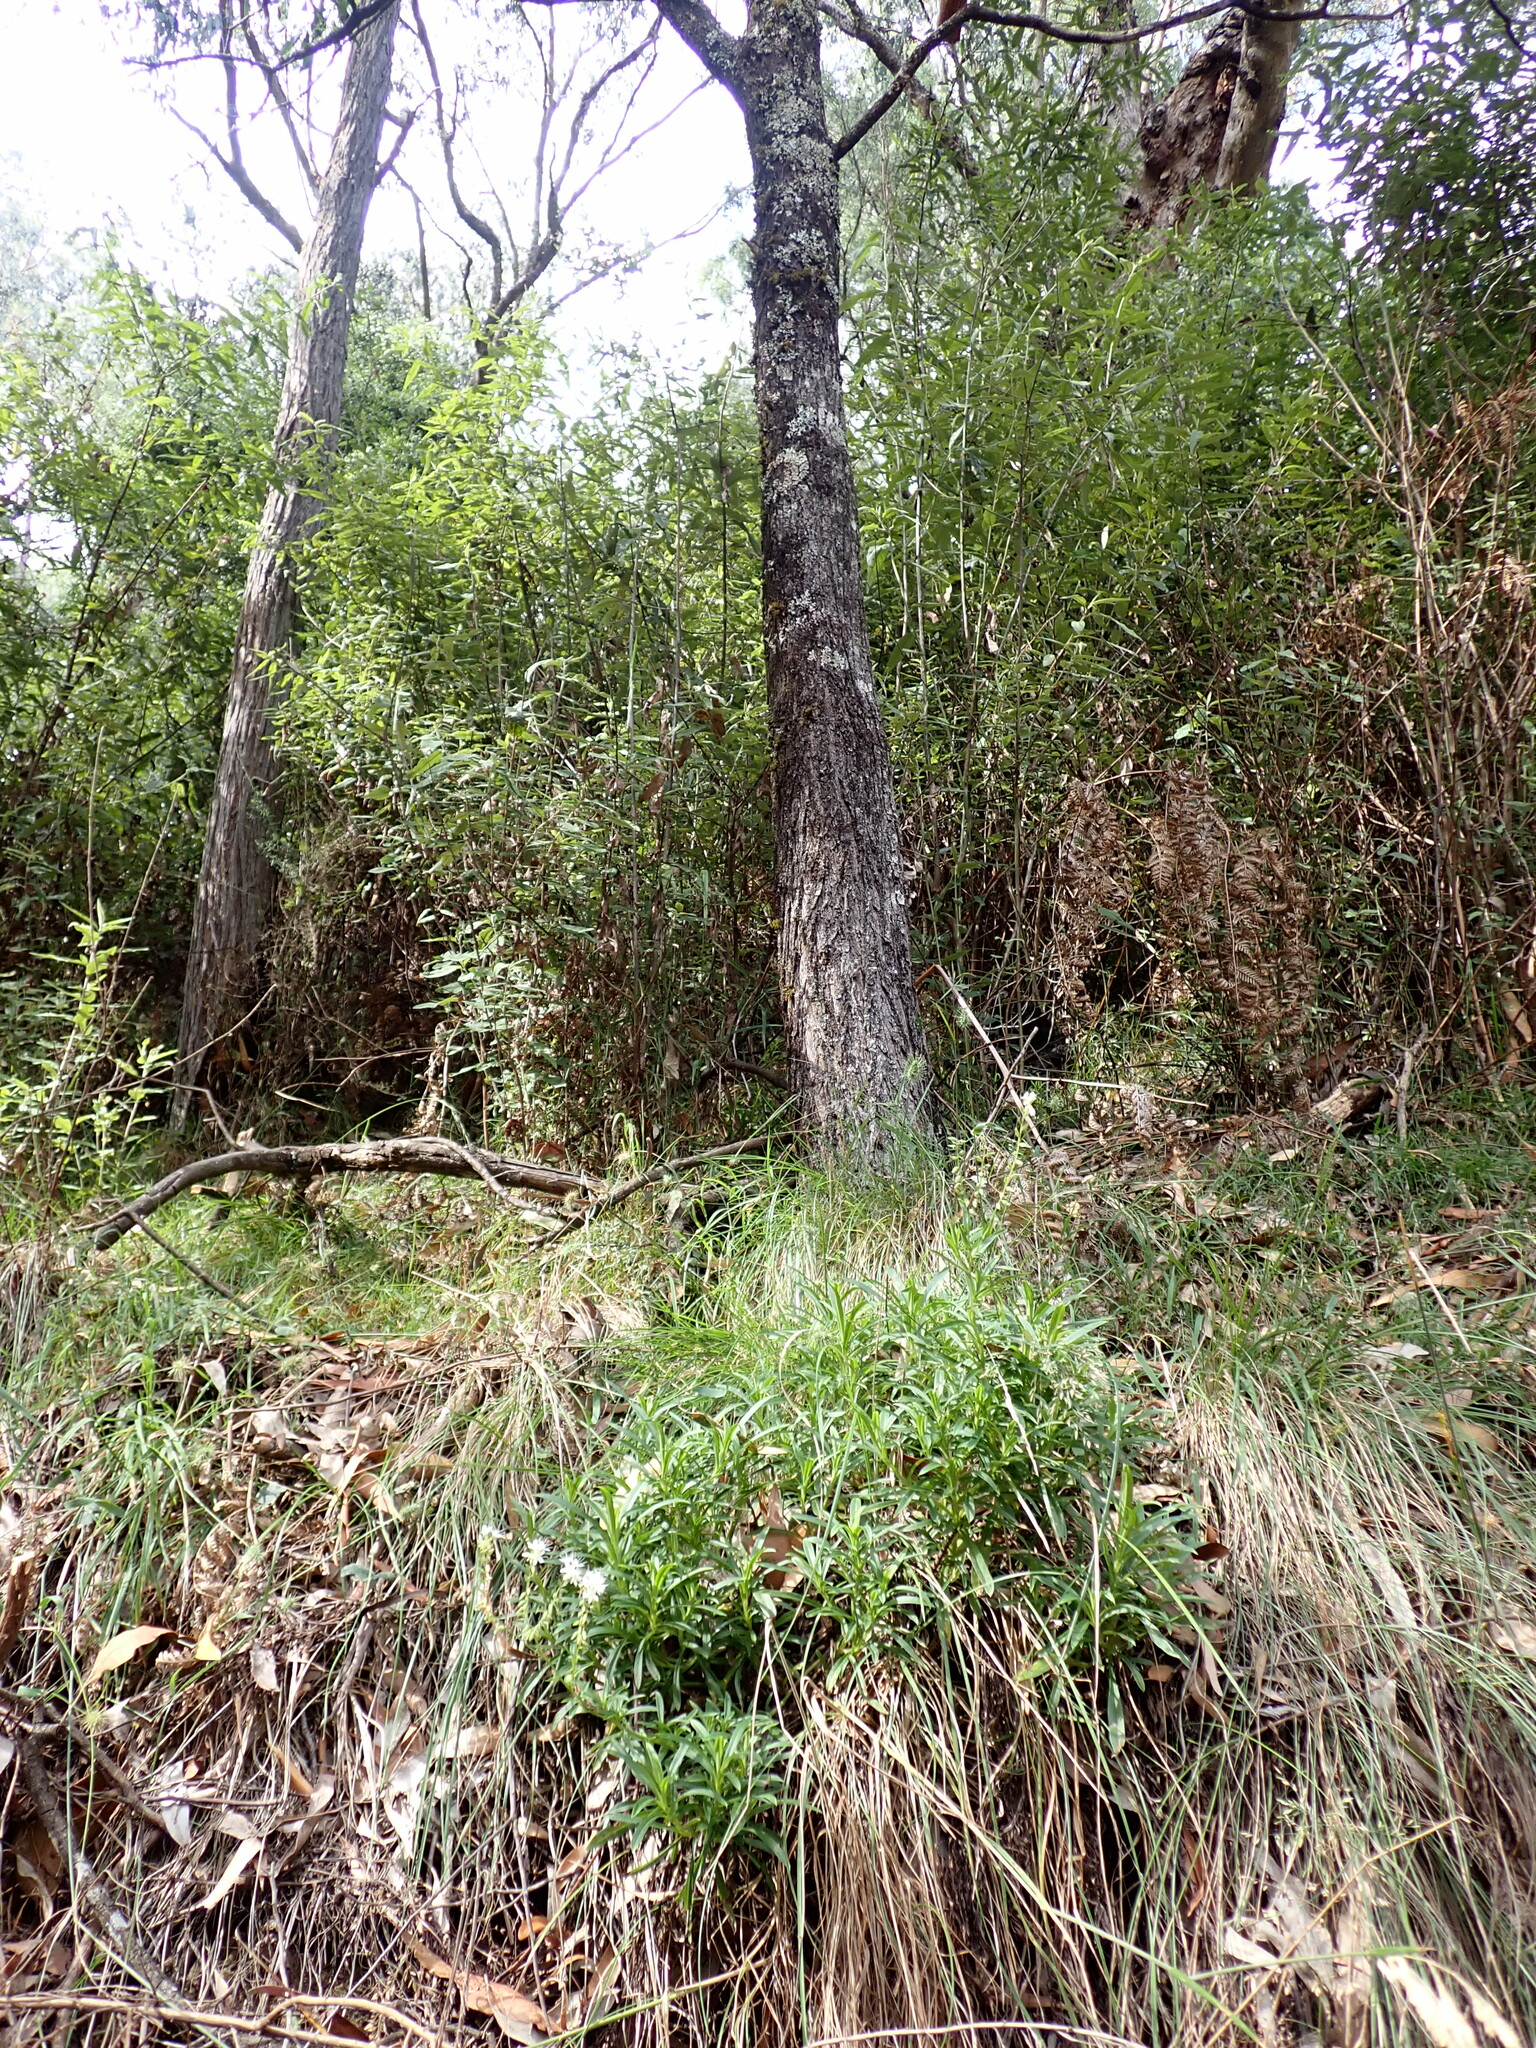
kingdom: Plantae
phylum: Tracheophyta
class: Magnoliopsida
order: Boraginales
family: Boraginaceae
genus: Myosotis
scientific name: Myosotis exarrhena
